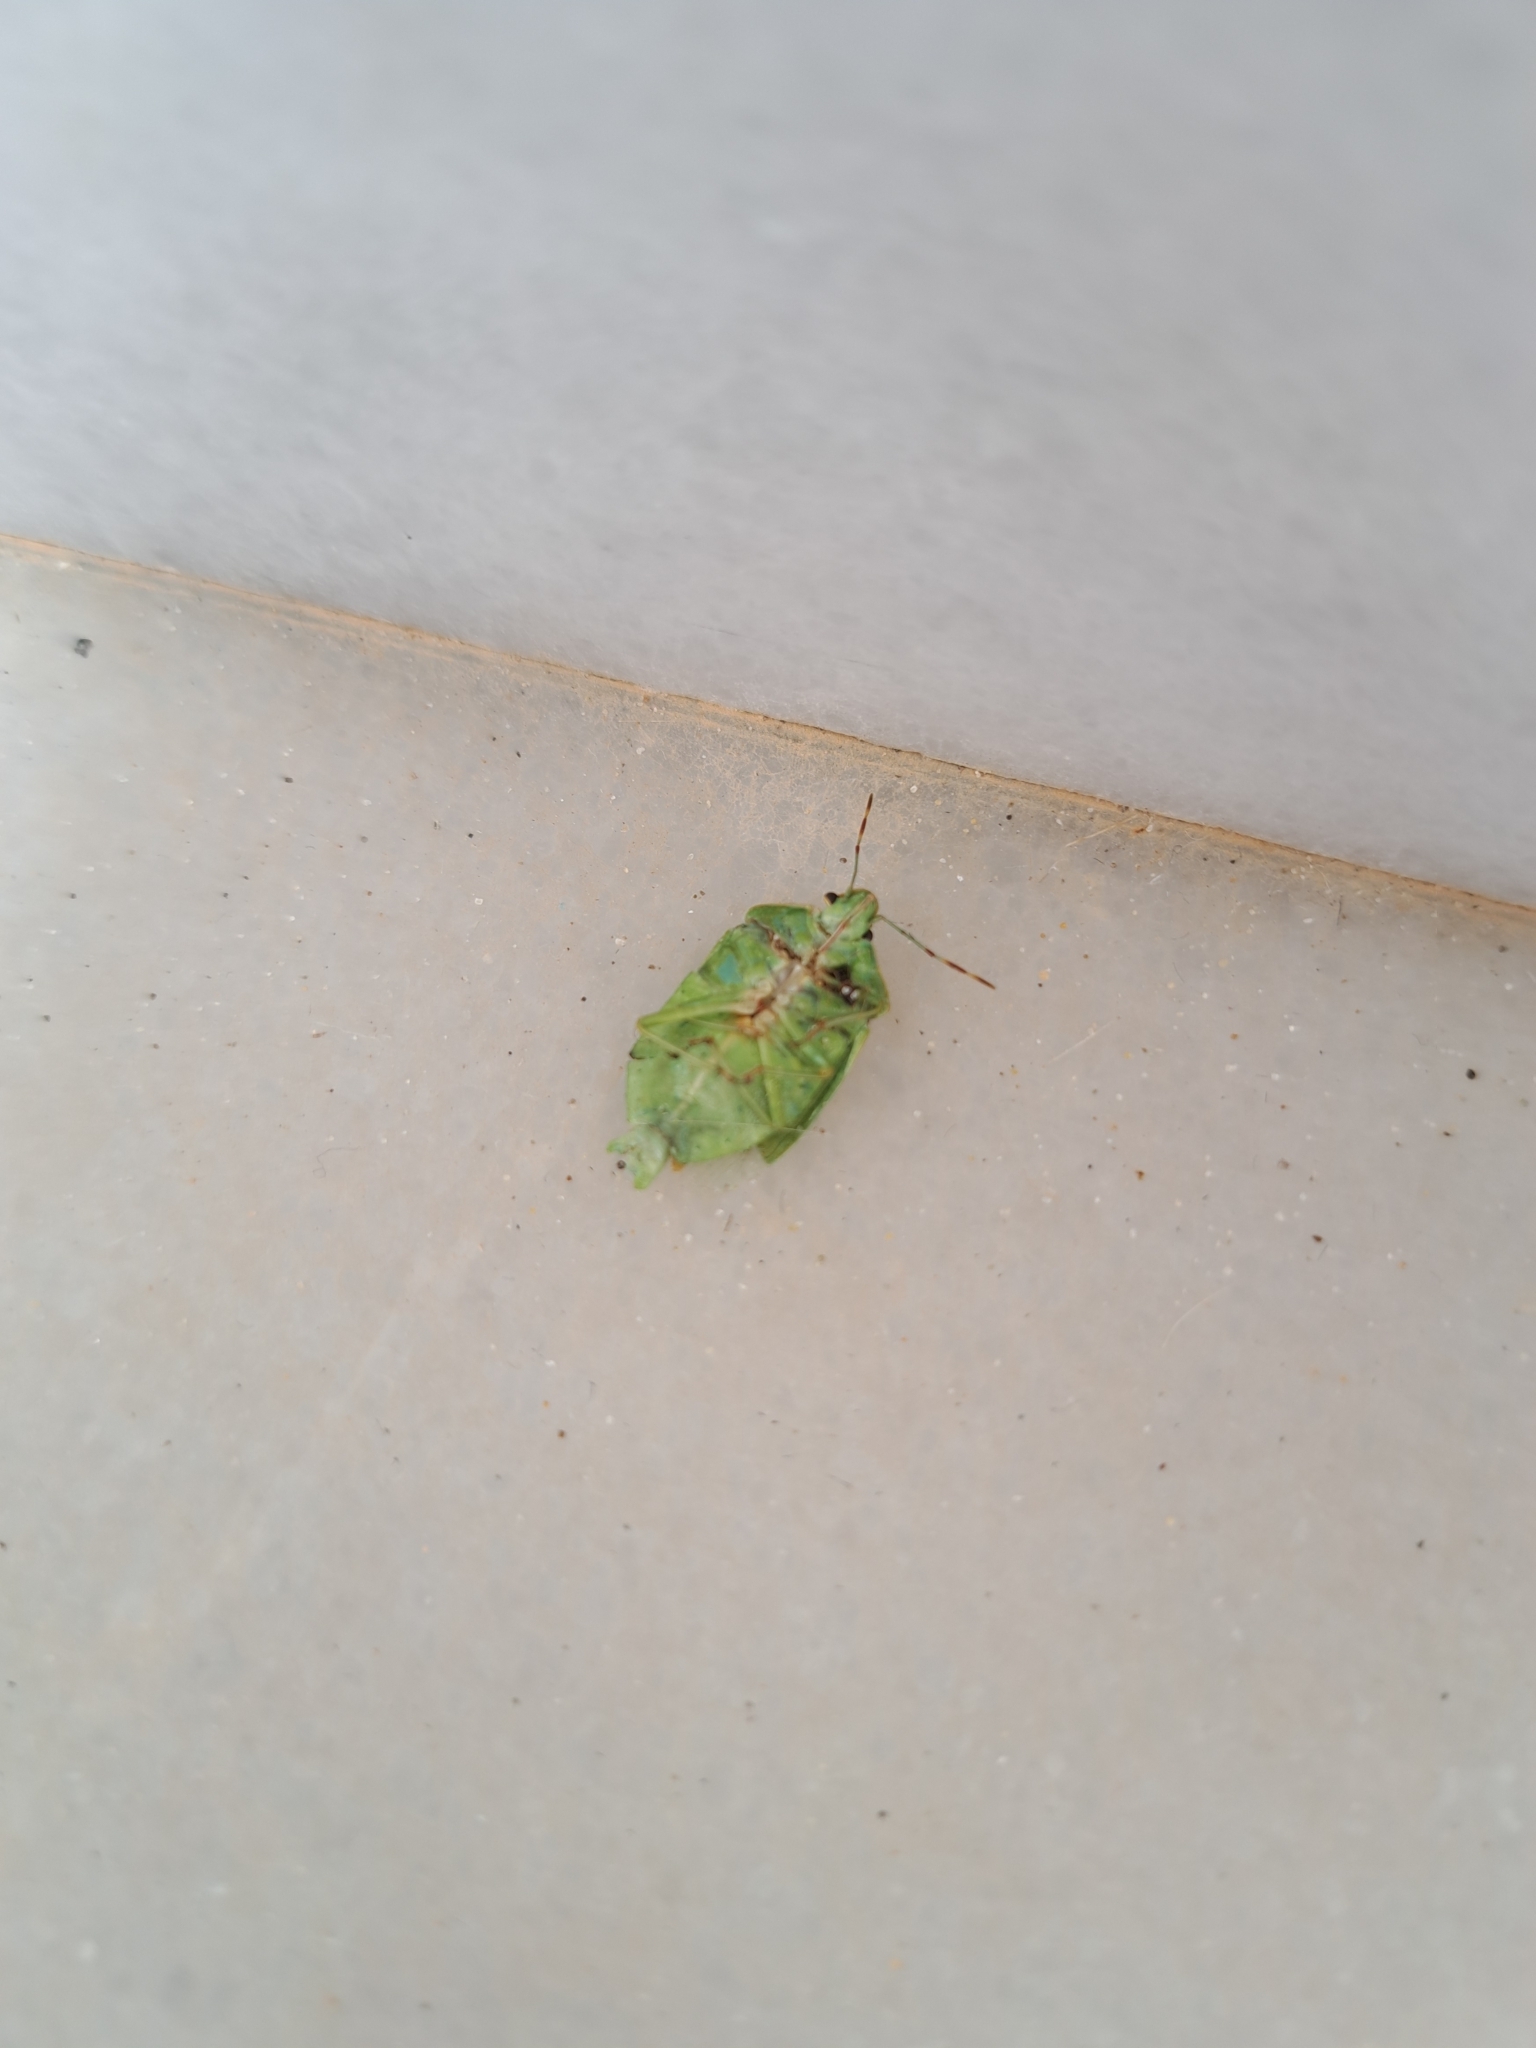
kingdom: Animalia
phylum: Arthropoda
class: Insecta
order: Hemiptera
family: Pentatomidae
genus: Nezara
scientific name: Nezara viridula
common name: Southern green stink bug
